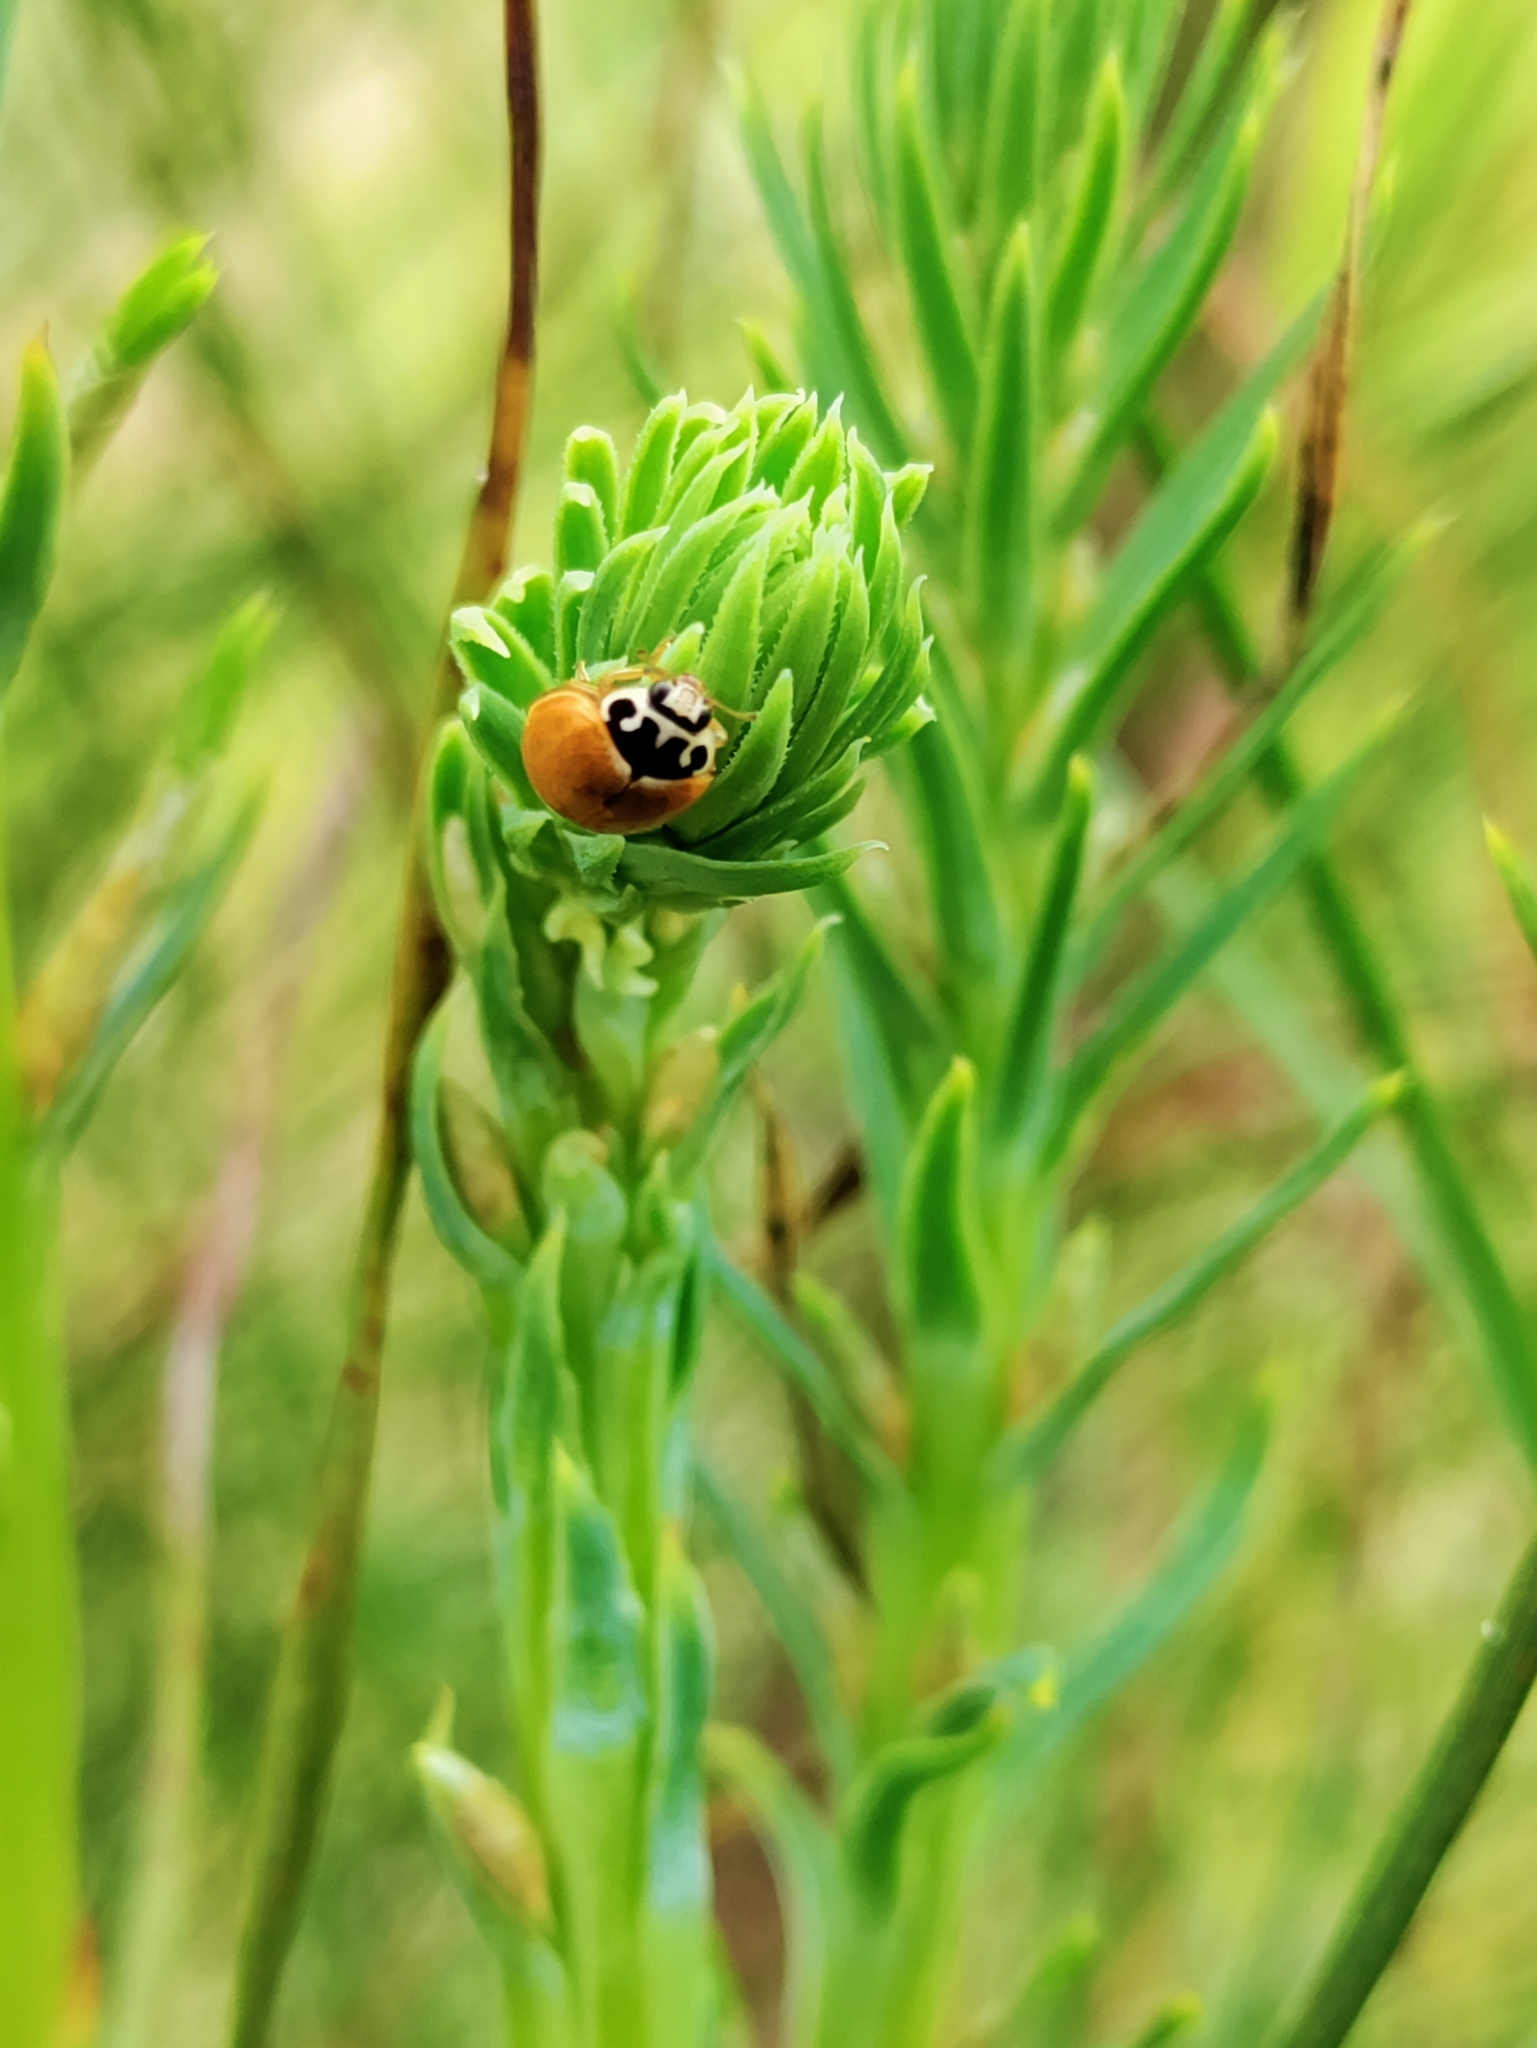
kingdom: Animalia
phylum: Arthropoda
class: Insecta
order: Coleoptera
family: Coccinellidae
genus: Cycloneda
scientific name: Cycloneda munda
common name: Polished lady beetle
